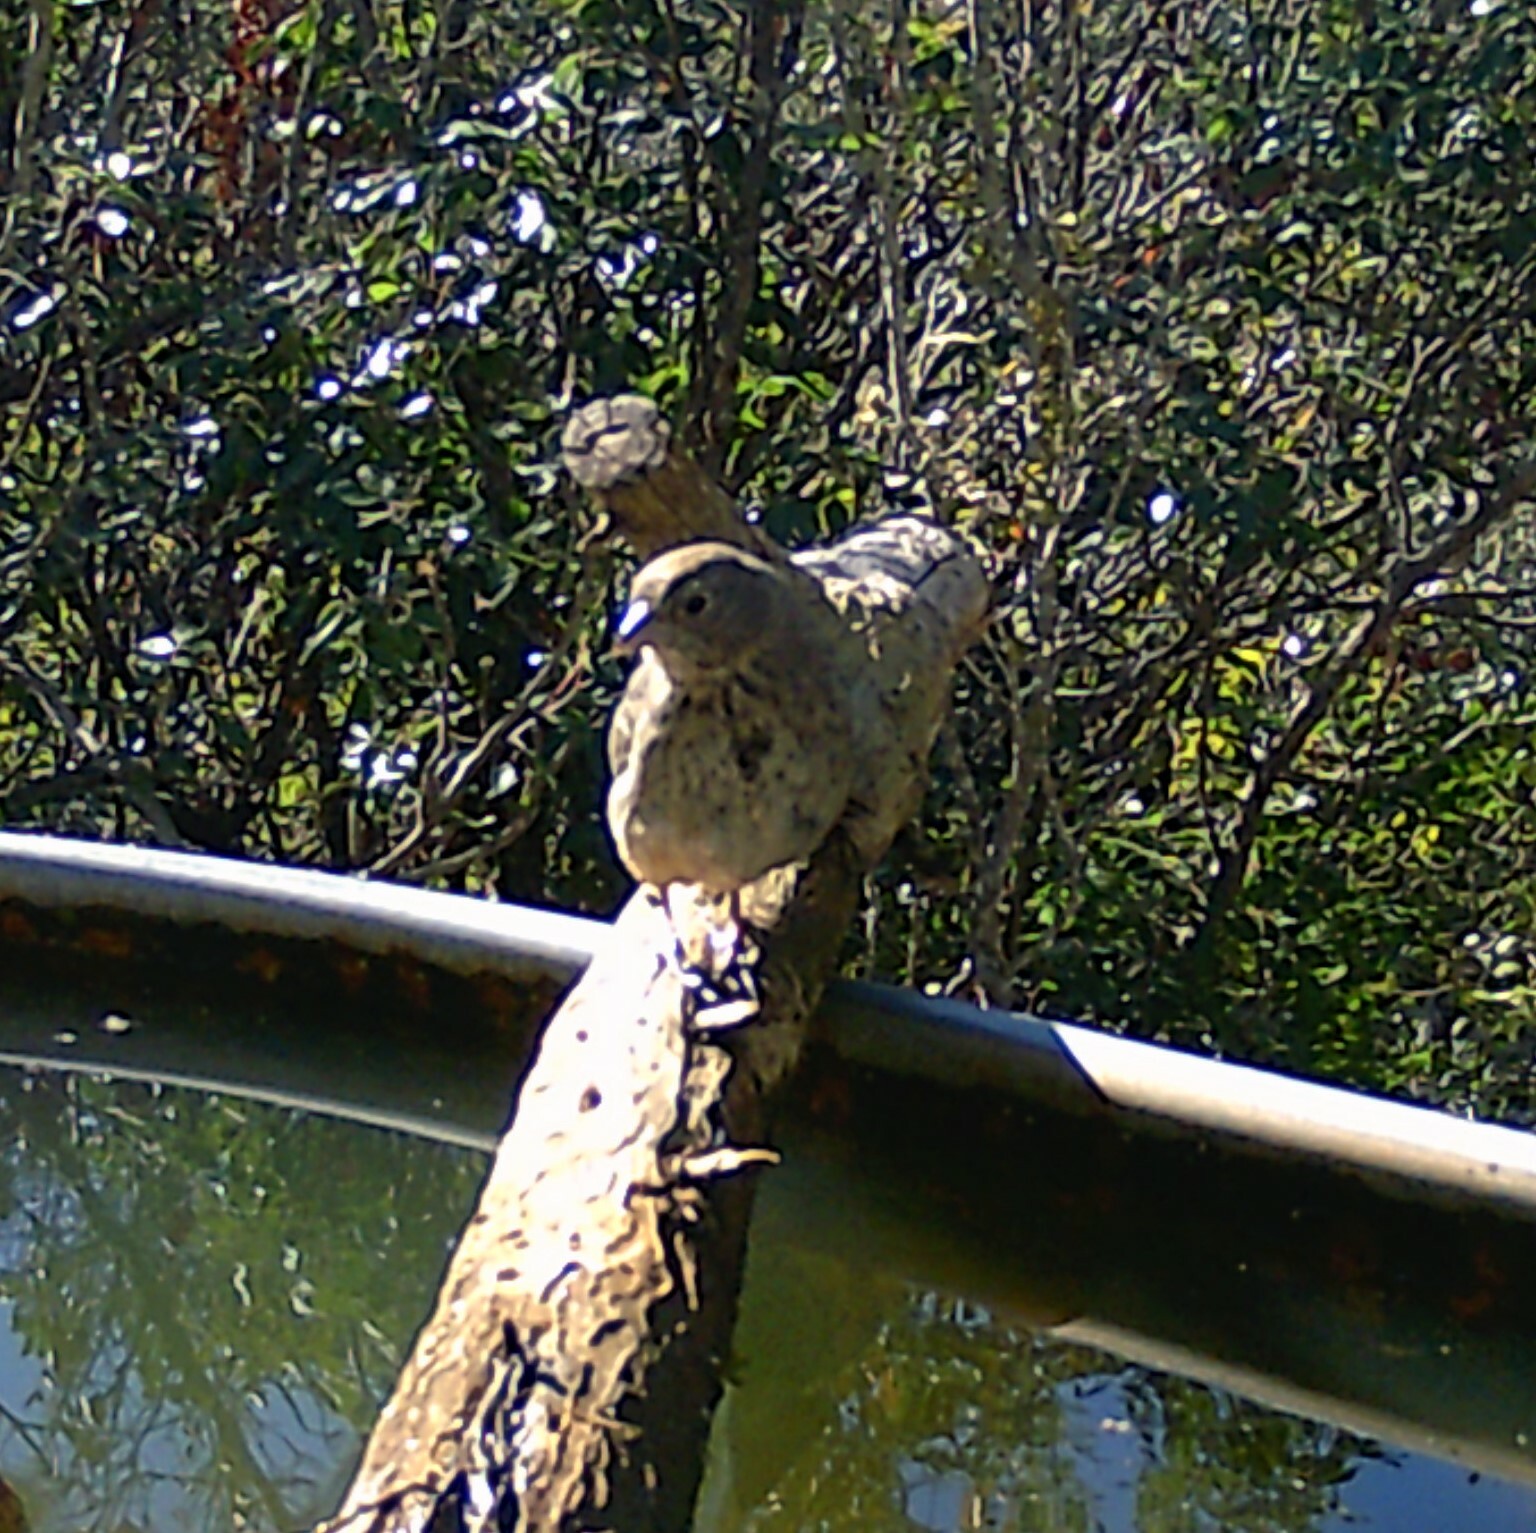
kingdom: Animalia
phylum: Chordata
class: Aves
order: Passeriformes
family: Passerellidae
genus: Melozone
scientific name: Melozone fusca
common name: Canyon towhee
